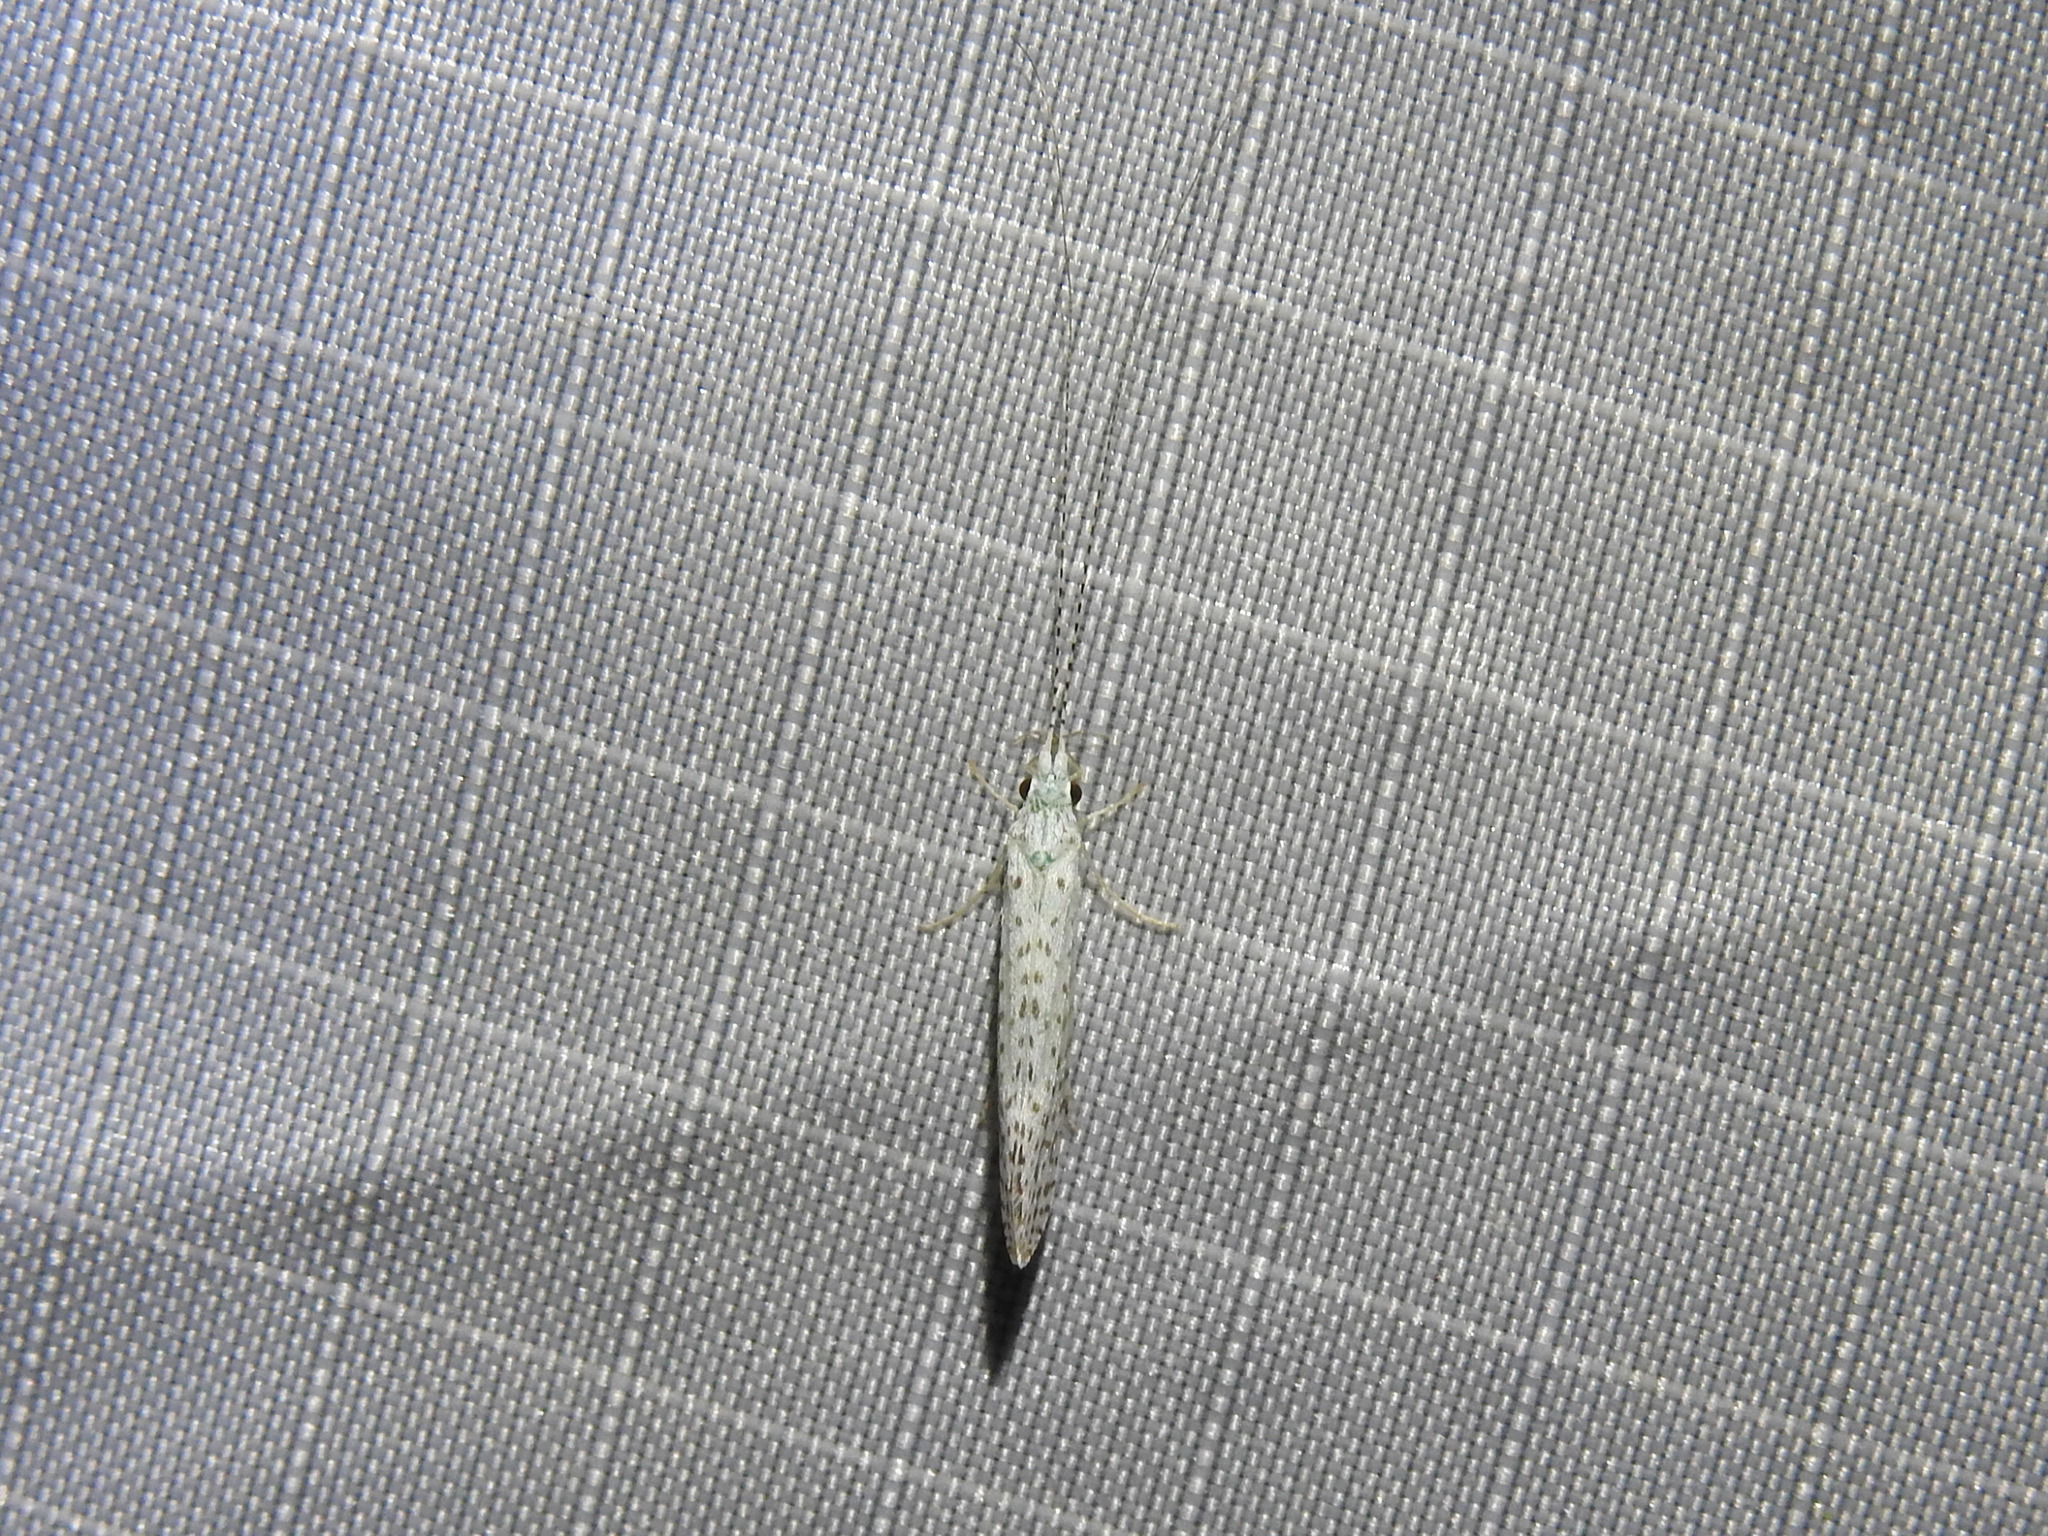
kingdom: Animalia
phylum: Arthropoda
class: Insecta
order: Trichoptera
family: Leptoceridae
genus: Nectopsyche
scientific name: Nectopsyche candida
